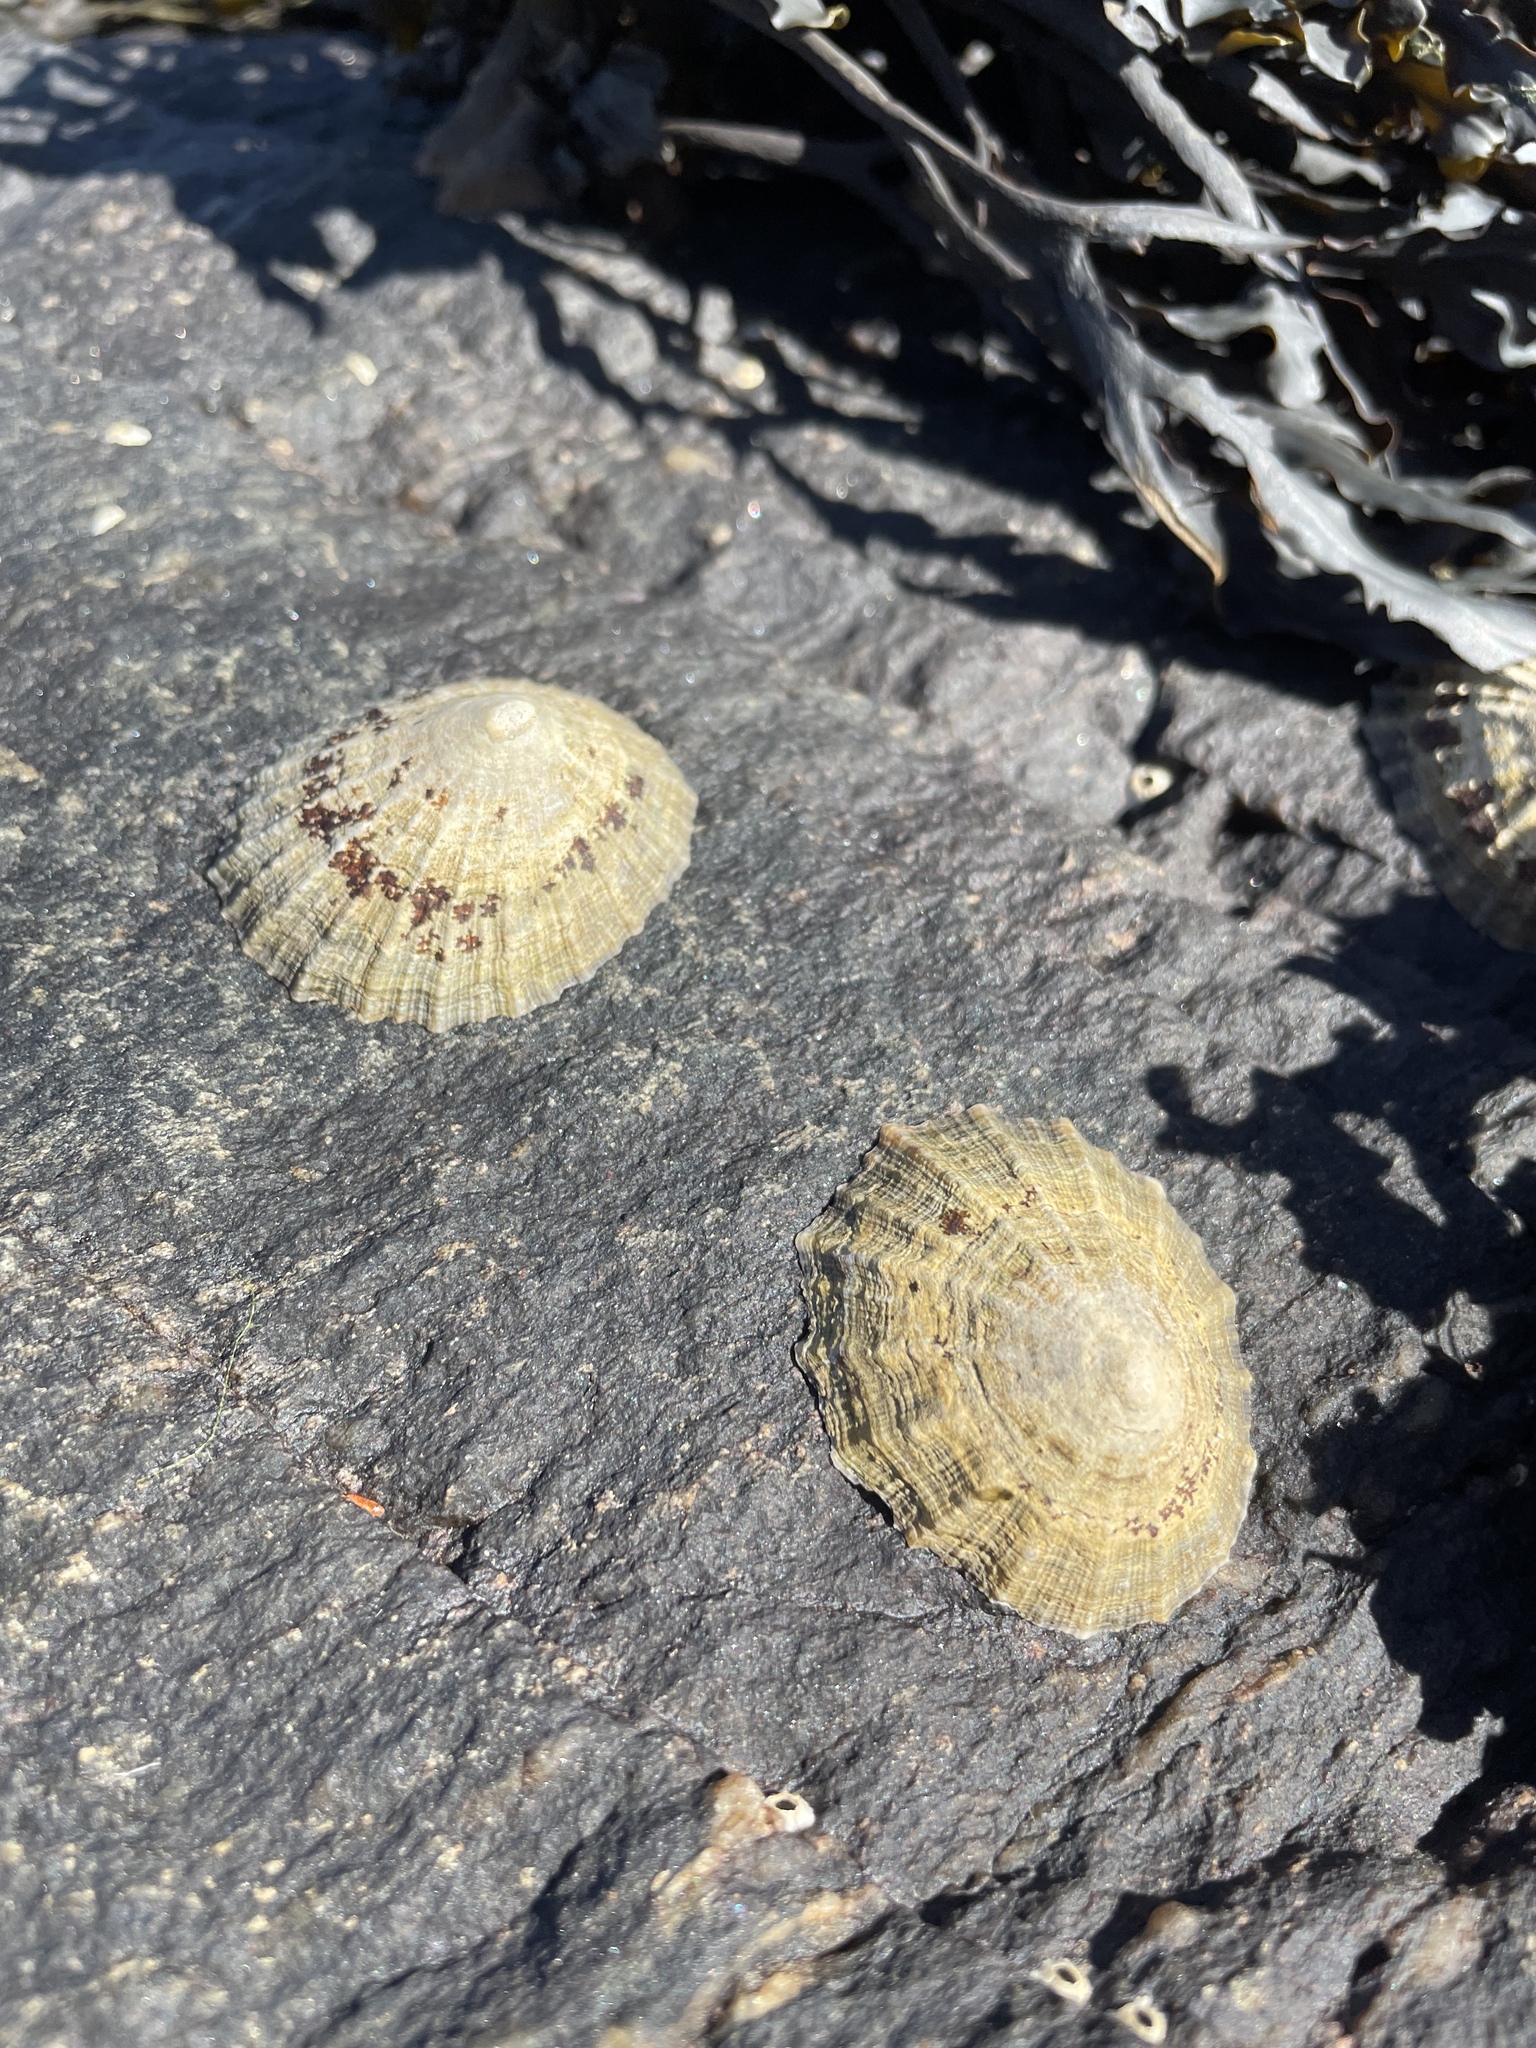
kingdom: Animalia
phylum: Mollusca
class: Gastropoda
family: Patellidae
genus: Patella
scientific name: Patella vulgata
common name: Common limpet
